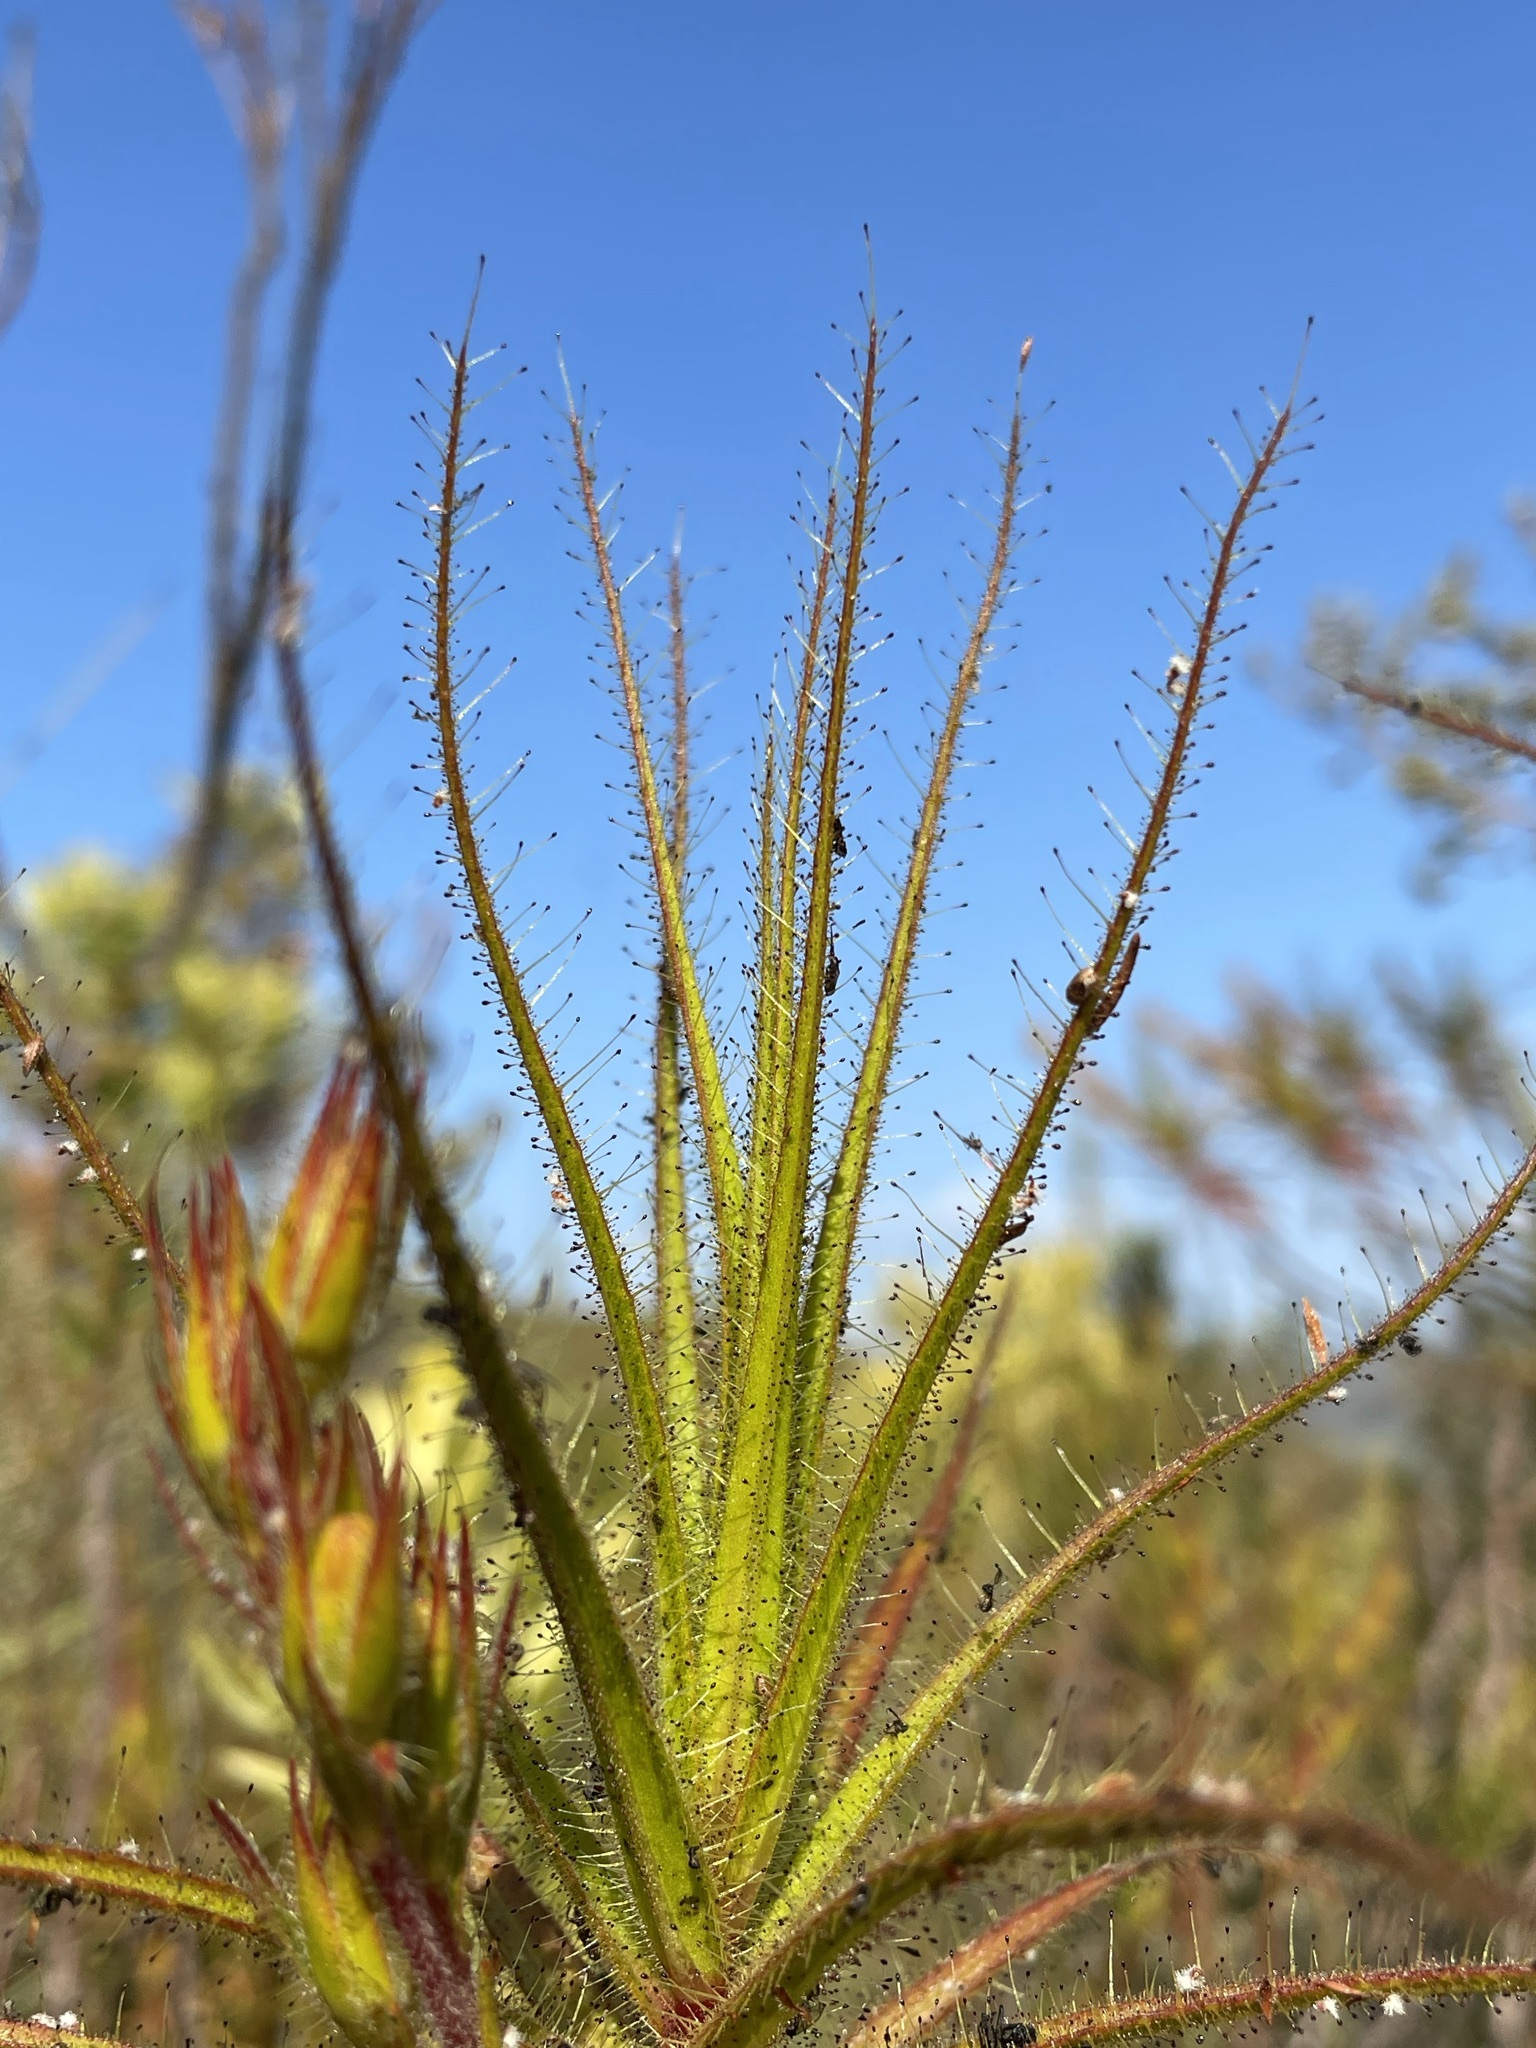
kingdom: Plantae
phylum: Tracheophyta
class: Magnoliopsida
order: Ericales
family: Roridulaceae
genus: Roridula
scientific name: Roridula gorgonias
